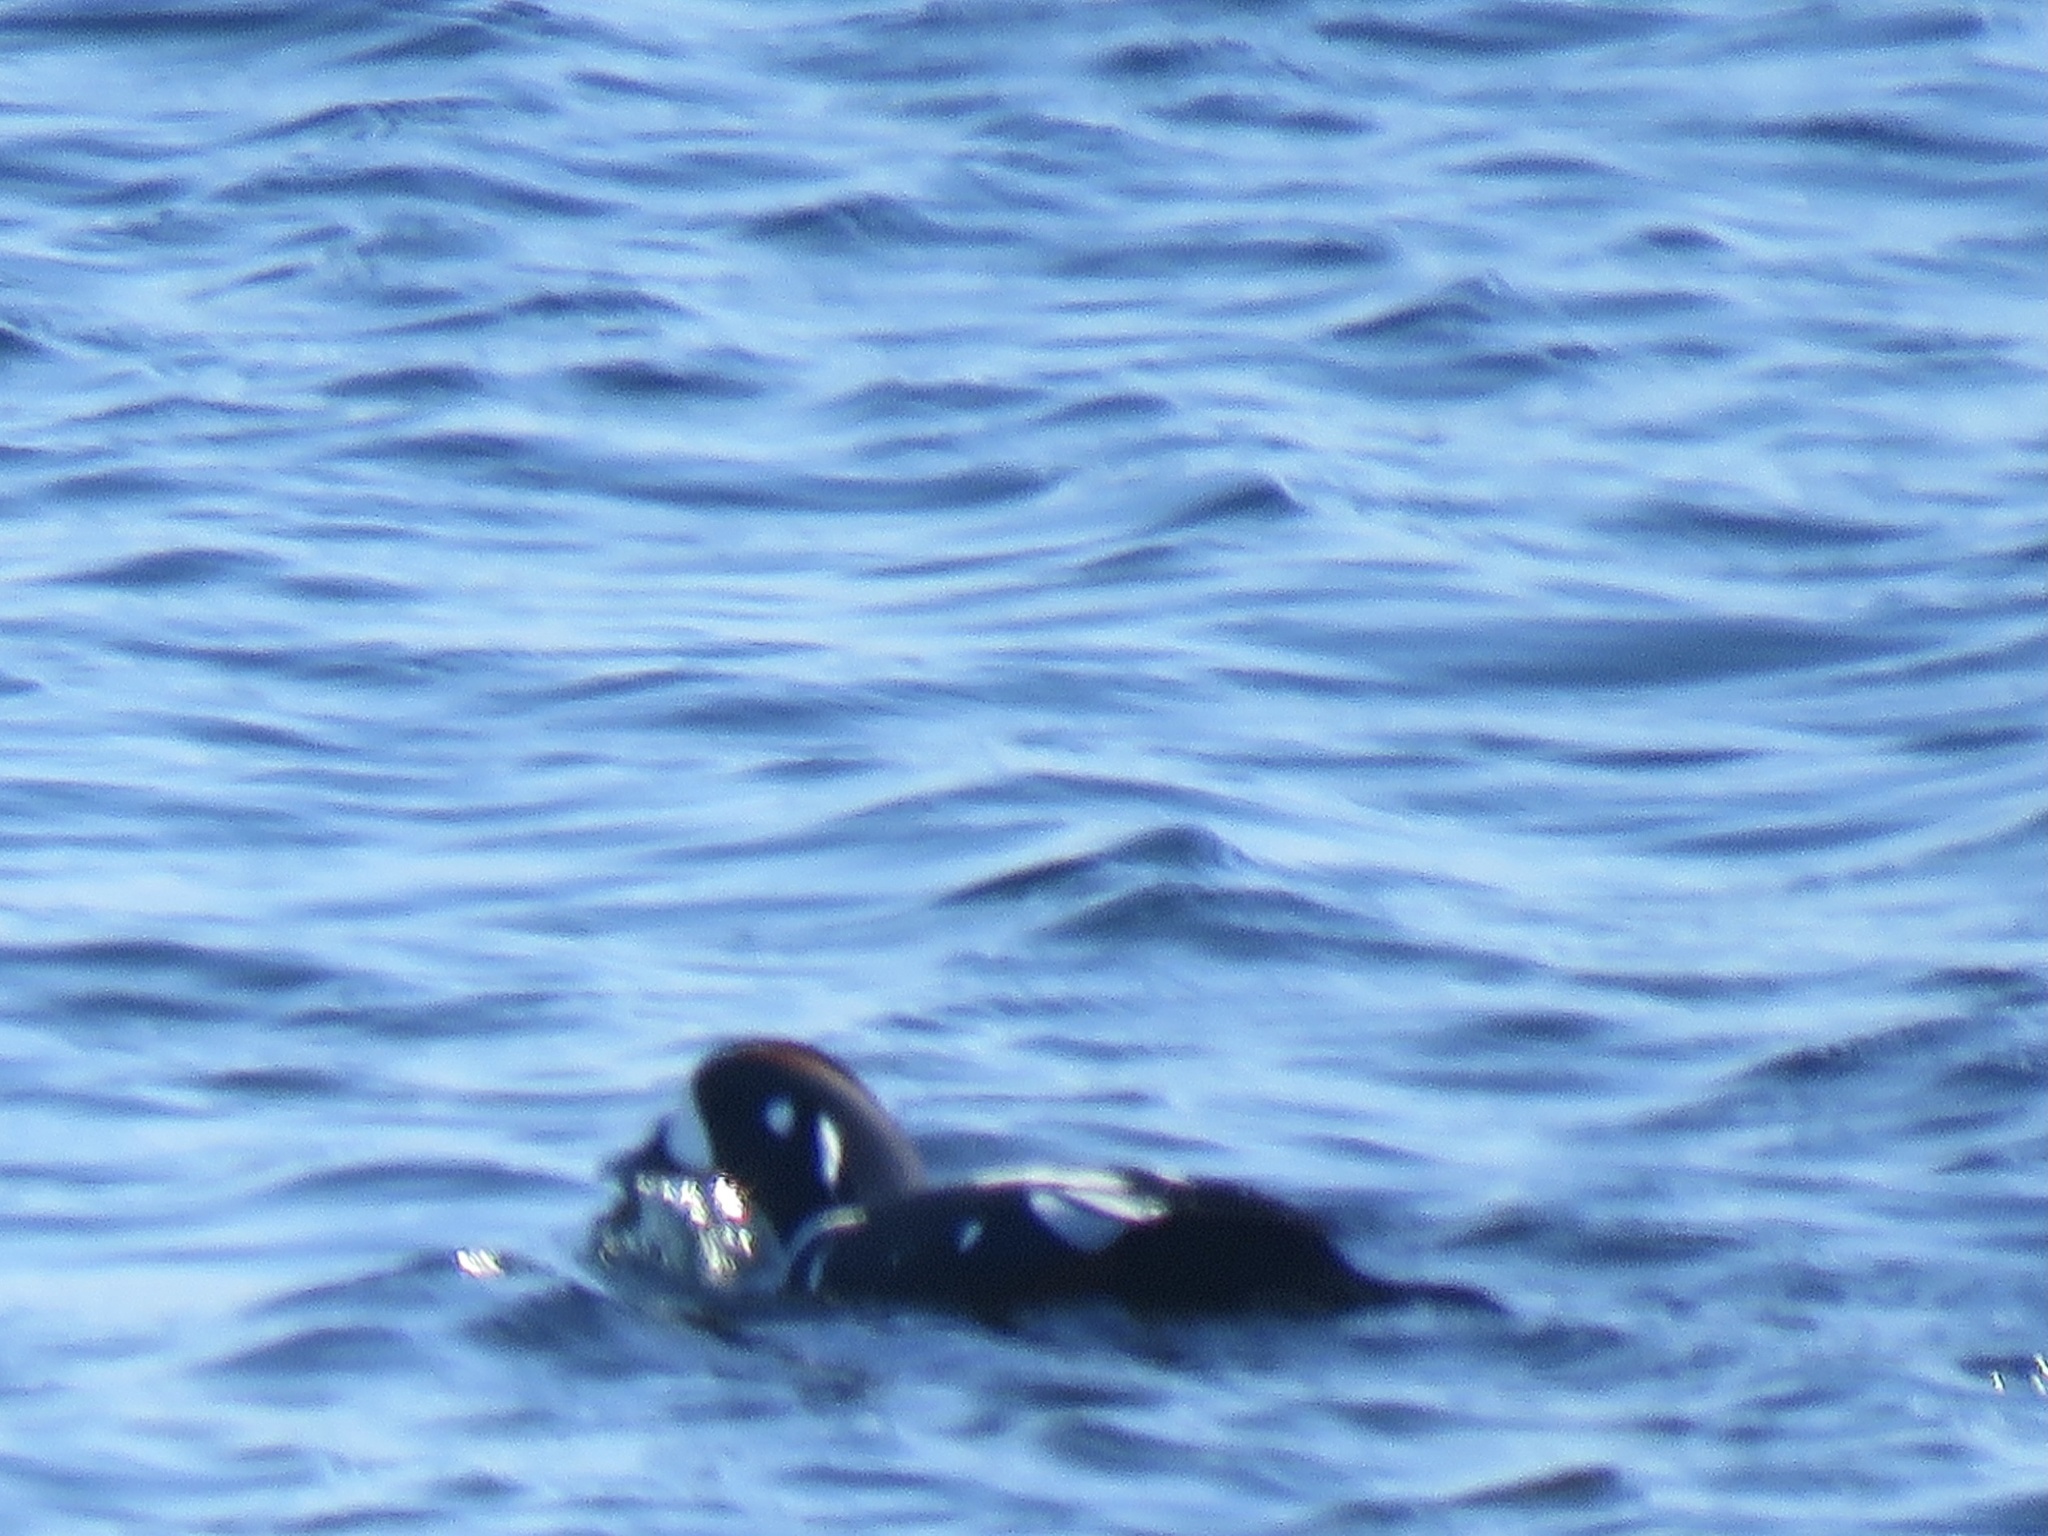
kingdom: Animalia
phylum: Chordata
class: Aves
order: Anseriformes
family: Anatidae
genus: Histrionicus
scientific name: Histrionicus histrionicus
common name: Harlequin duck
